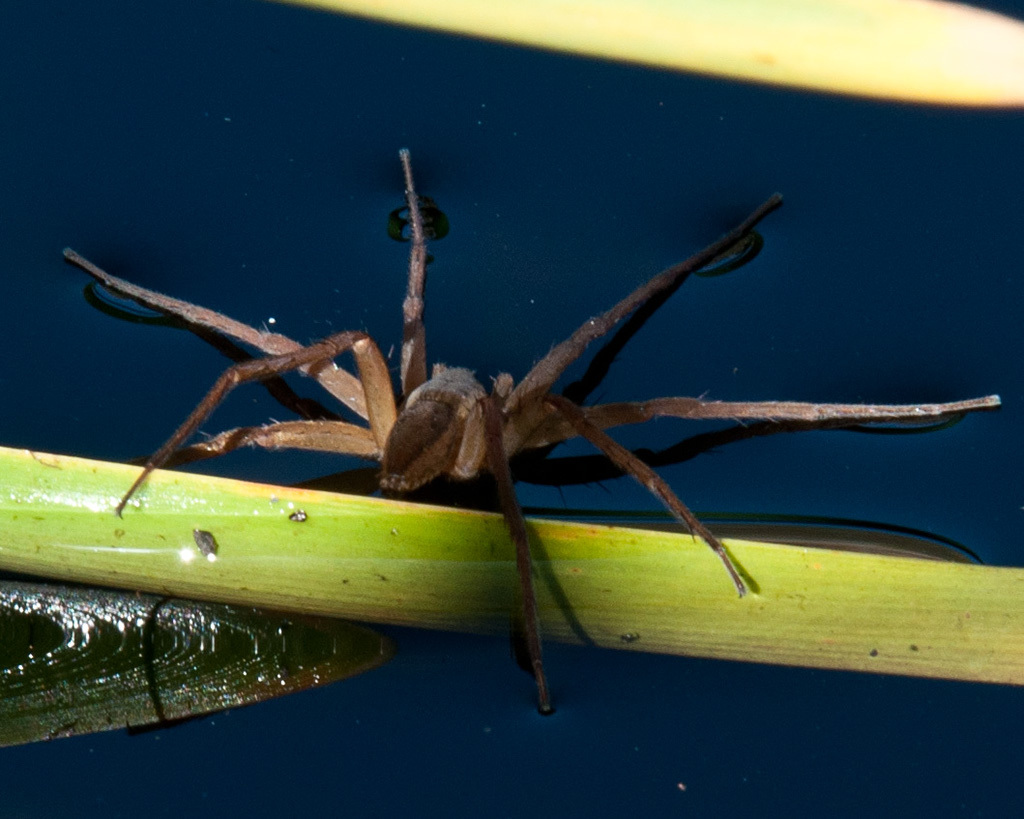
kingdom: Animalia
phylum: Arthropoda
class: Arachnida
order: Araneae
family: Pisauridae
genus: Nilus
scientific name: Nilus curtus
